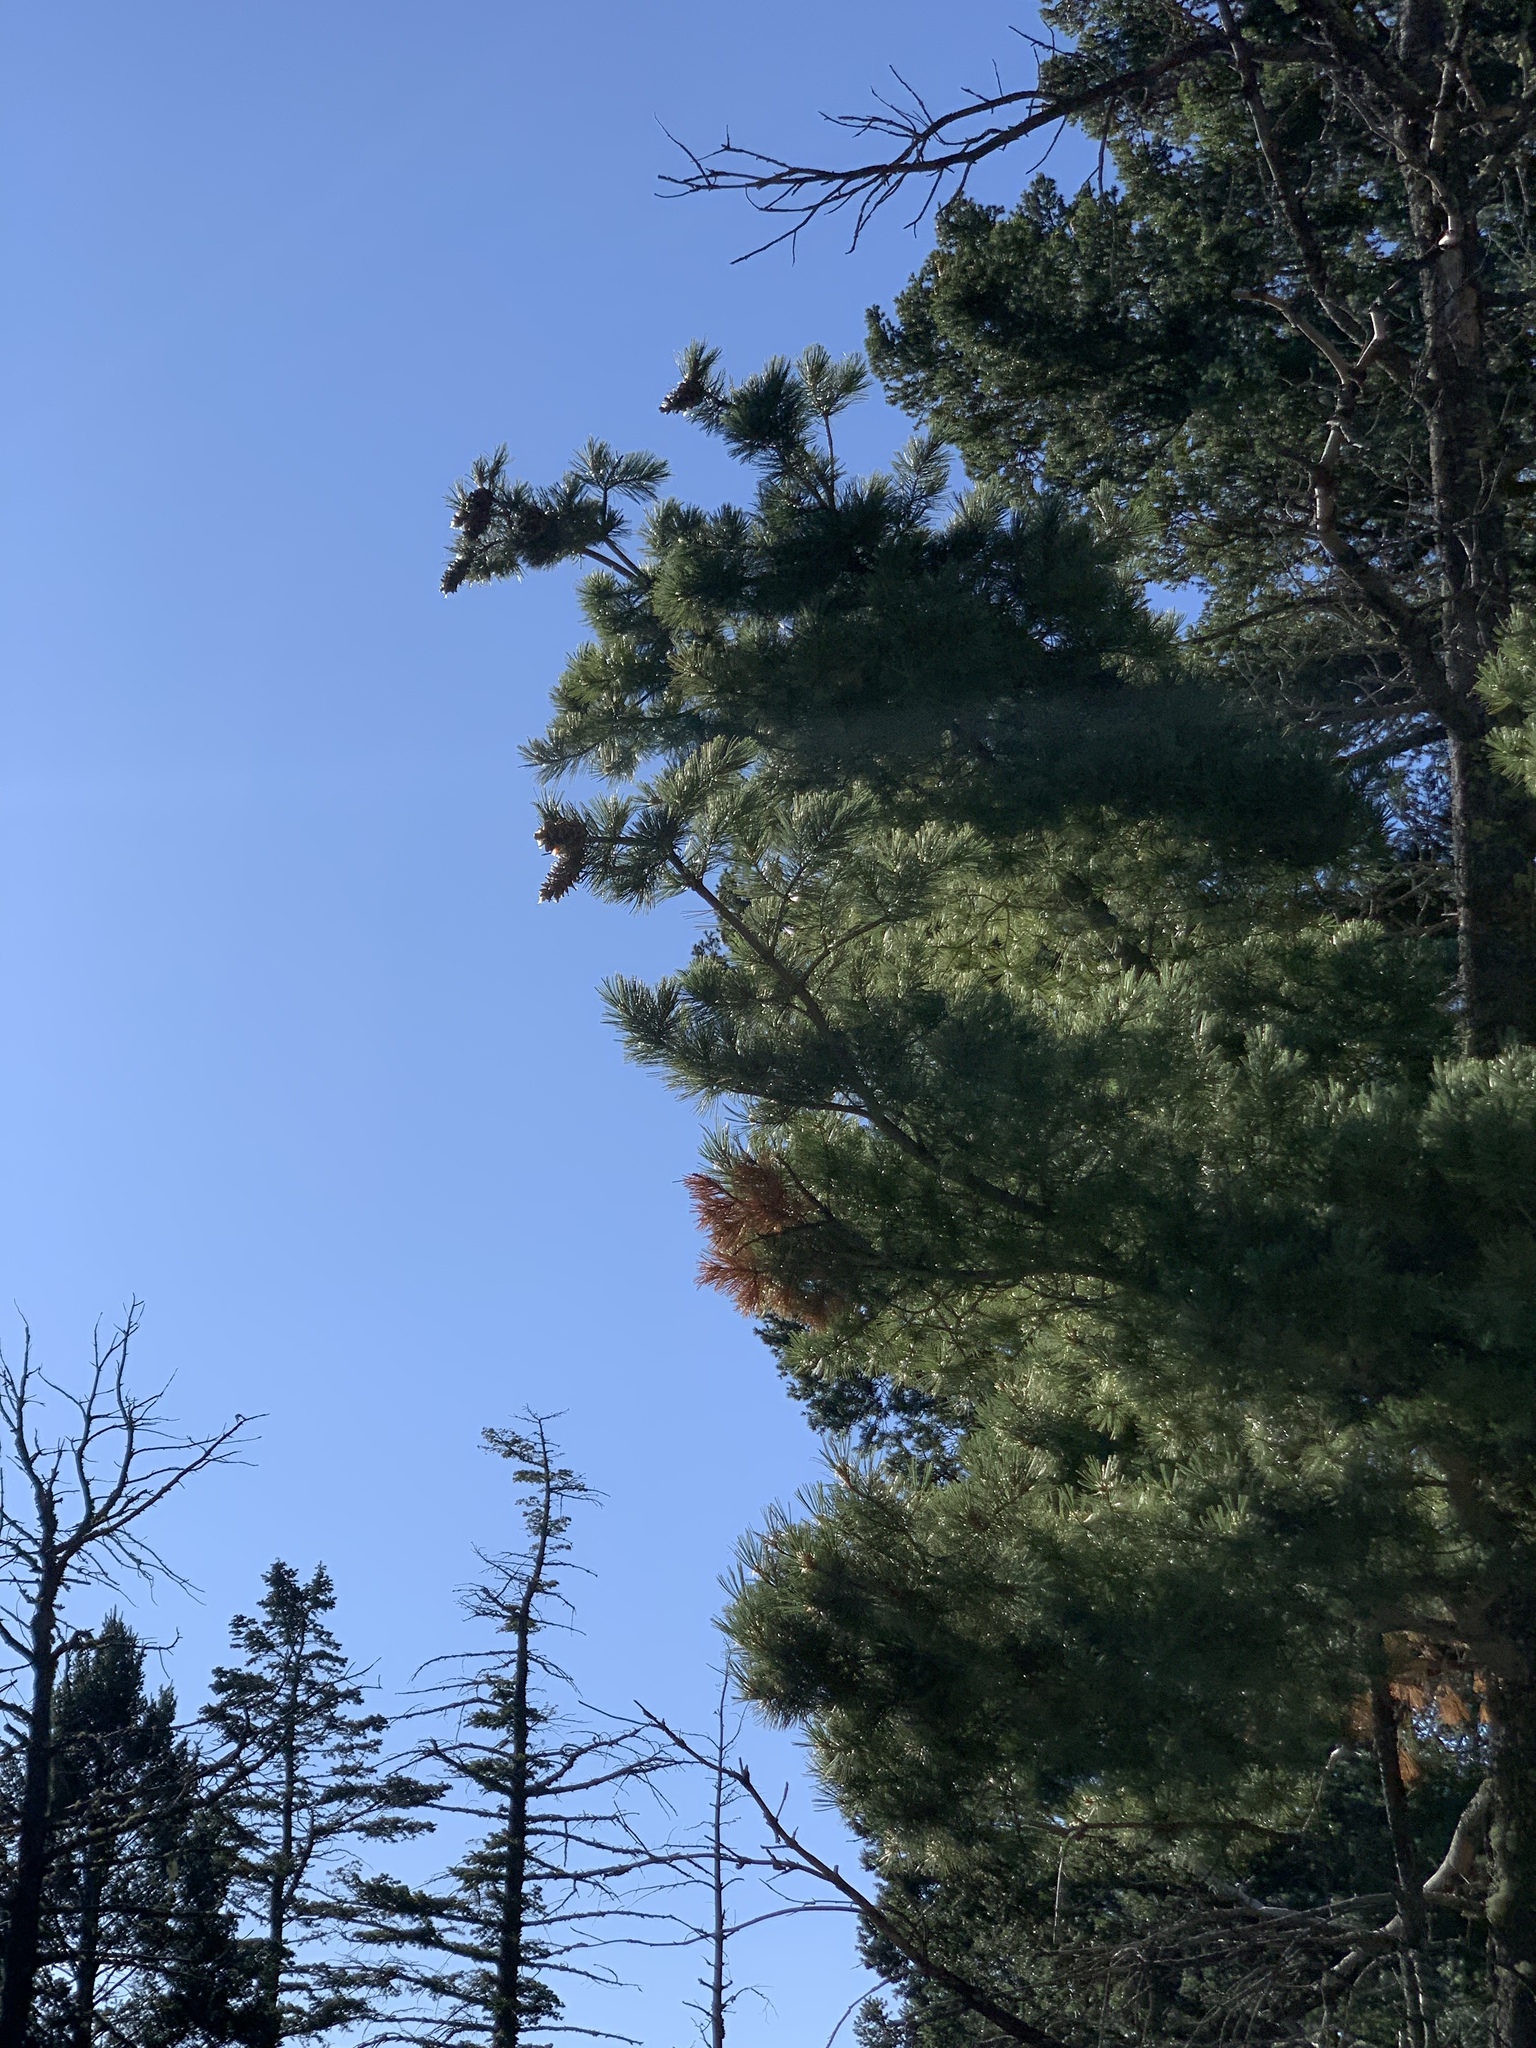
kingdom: Plantae
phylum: Tracheophyta
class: Pinopsida
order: Pinales
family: Pinaceae
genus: Pinus
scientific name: Pinus strobiformis
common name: Southwestern white pine
